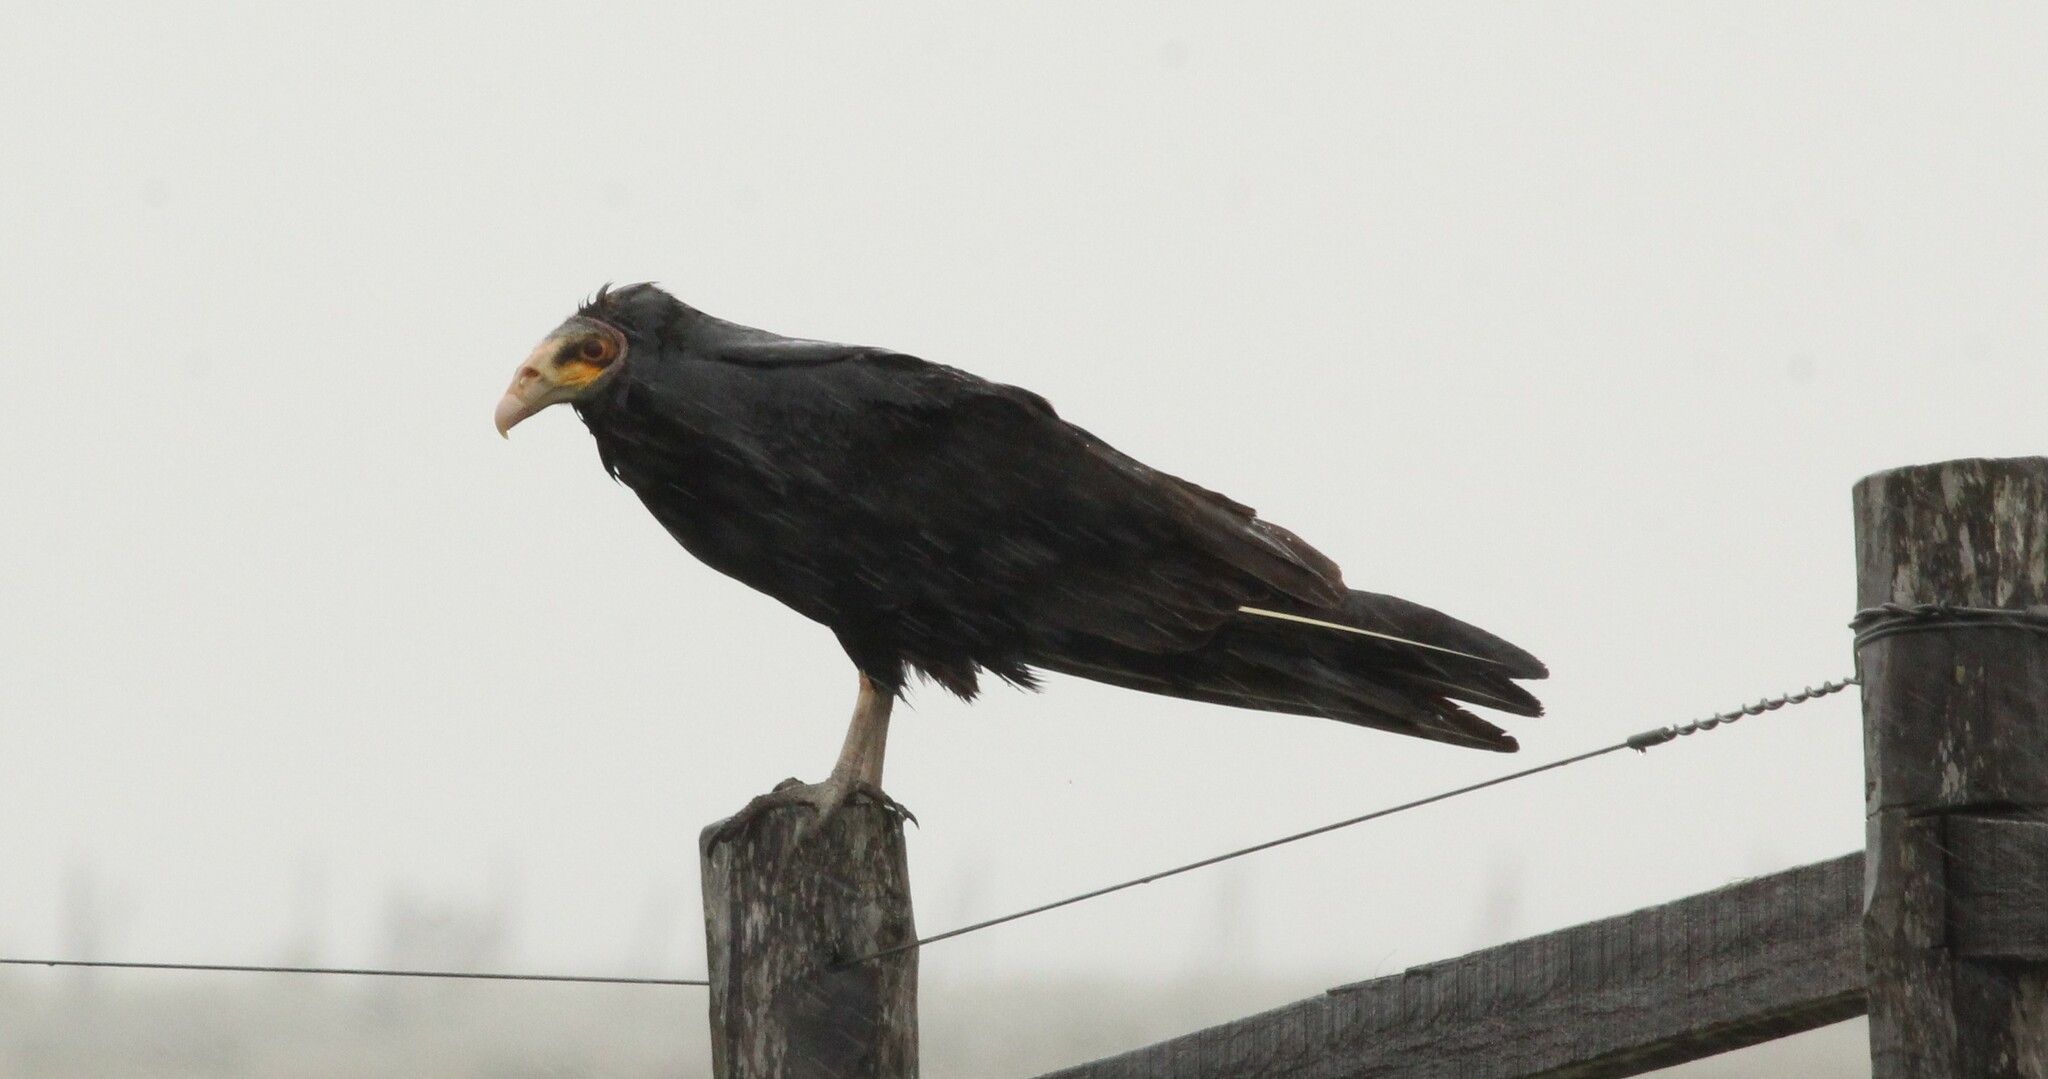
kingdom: Animalia
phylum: Chordata
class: Aves
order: Accipitriformes
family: Cathartidae
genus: Cathartes
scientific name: Cathartes burrovianus
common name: Lesser yellow-headed vulture
